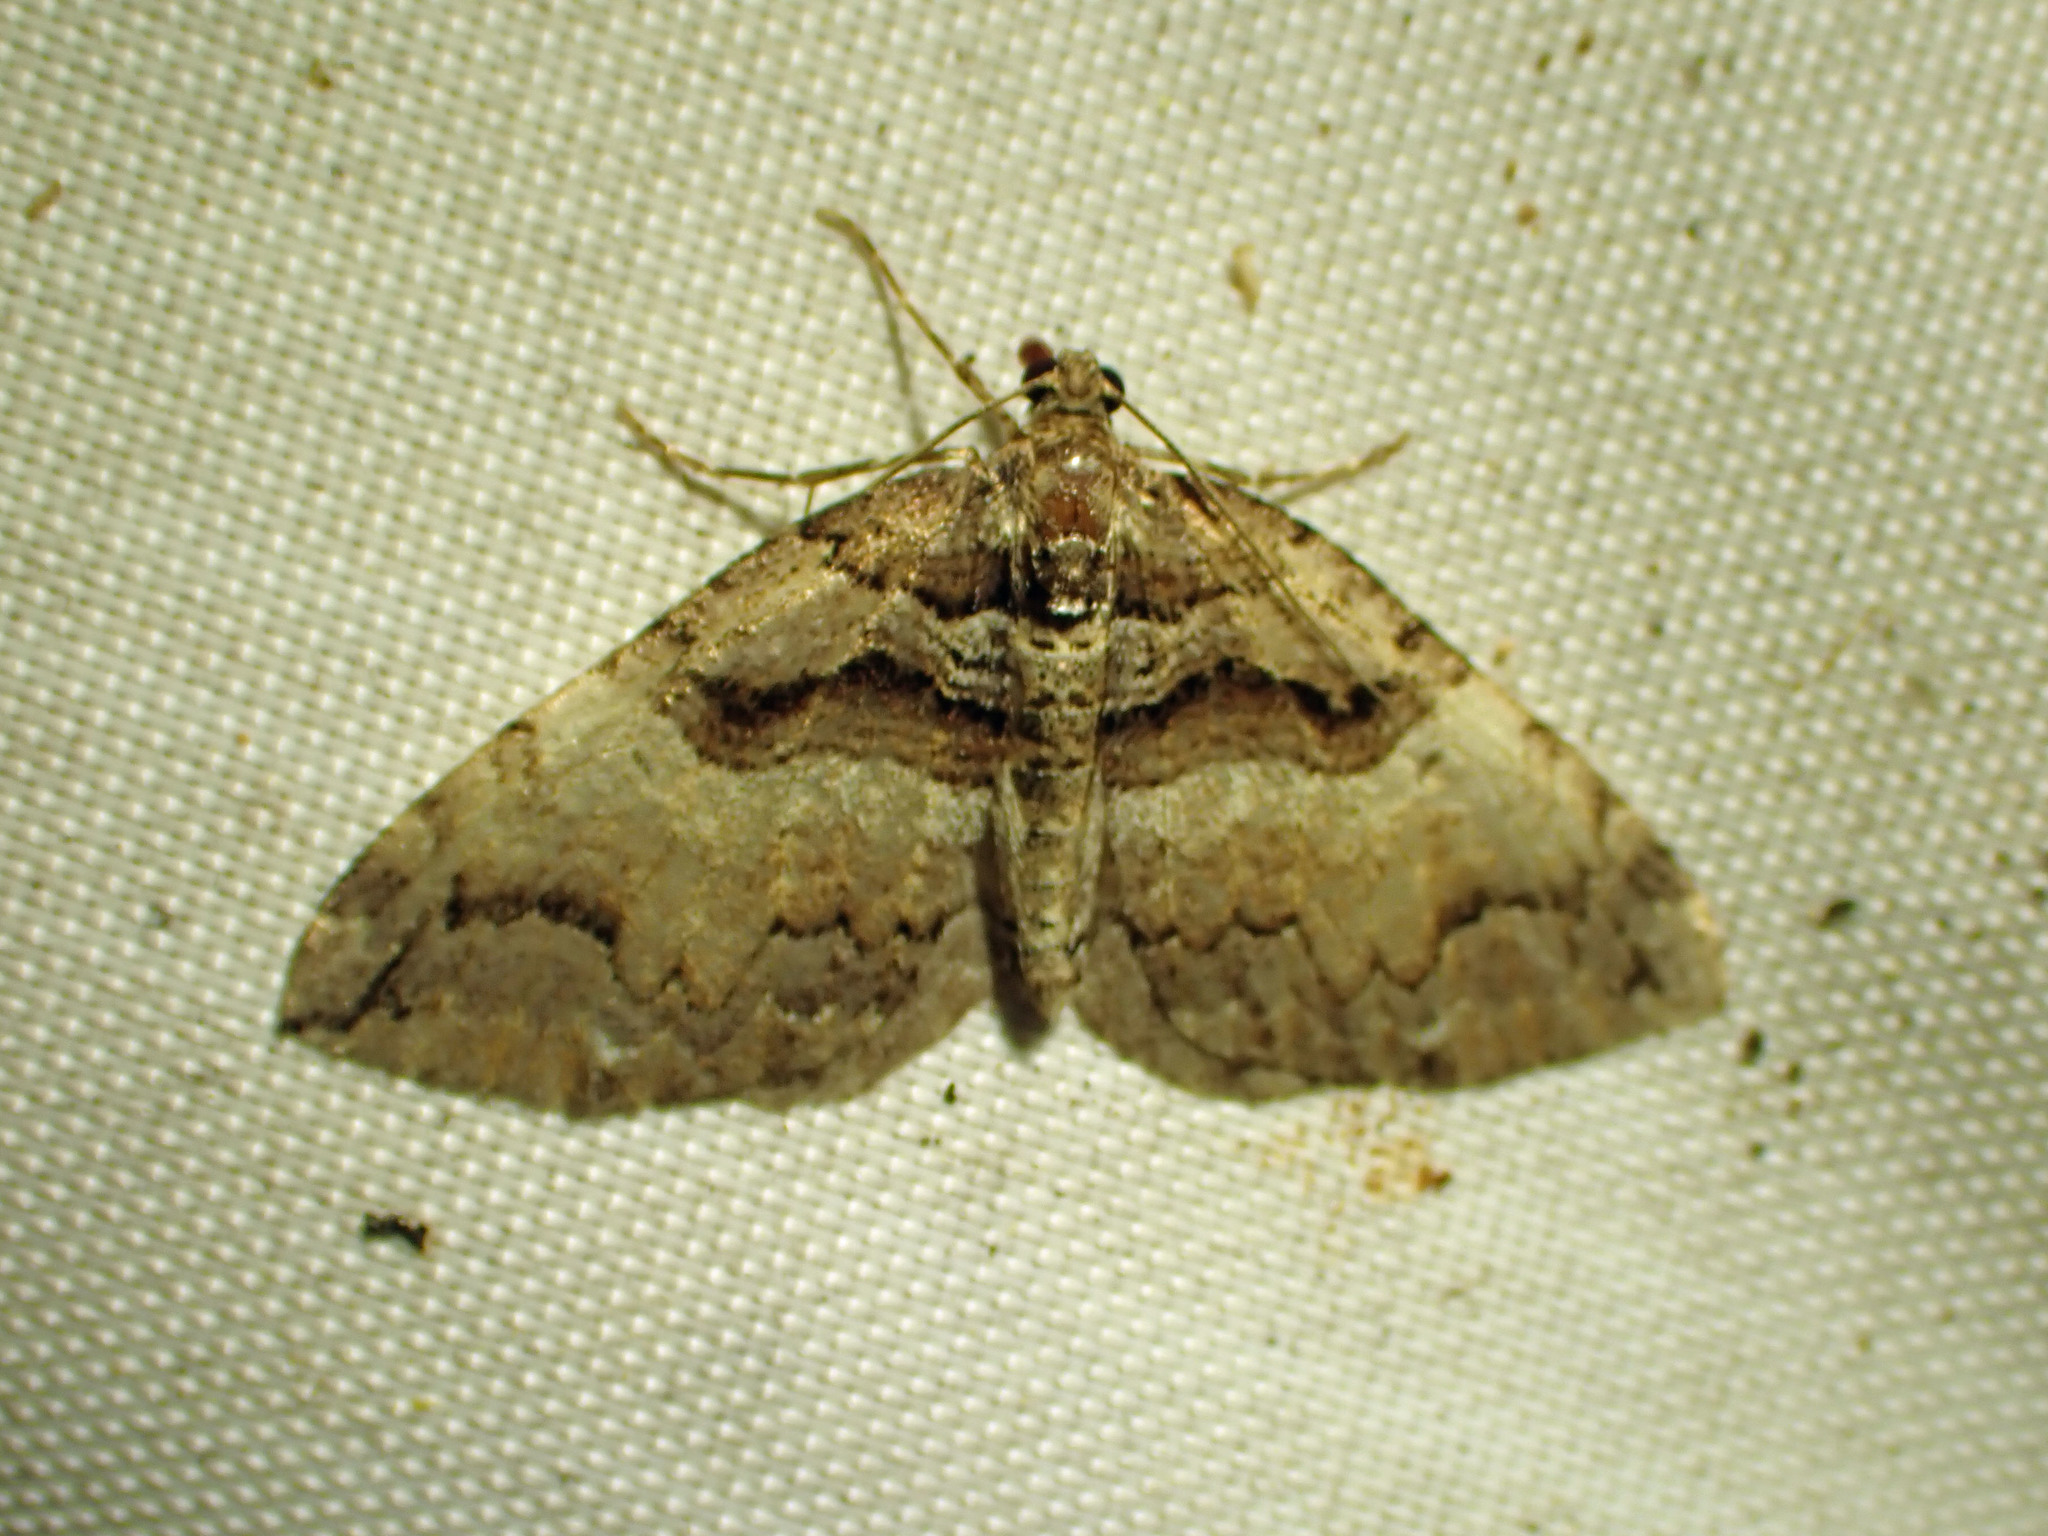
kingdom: Animalia
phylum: Arthropoda
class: Insecta
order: Lepidoptera
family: Geometridae
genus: Anticlea
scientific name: Anticlea vasiliata
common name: Variable carpet
